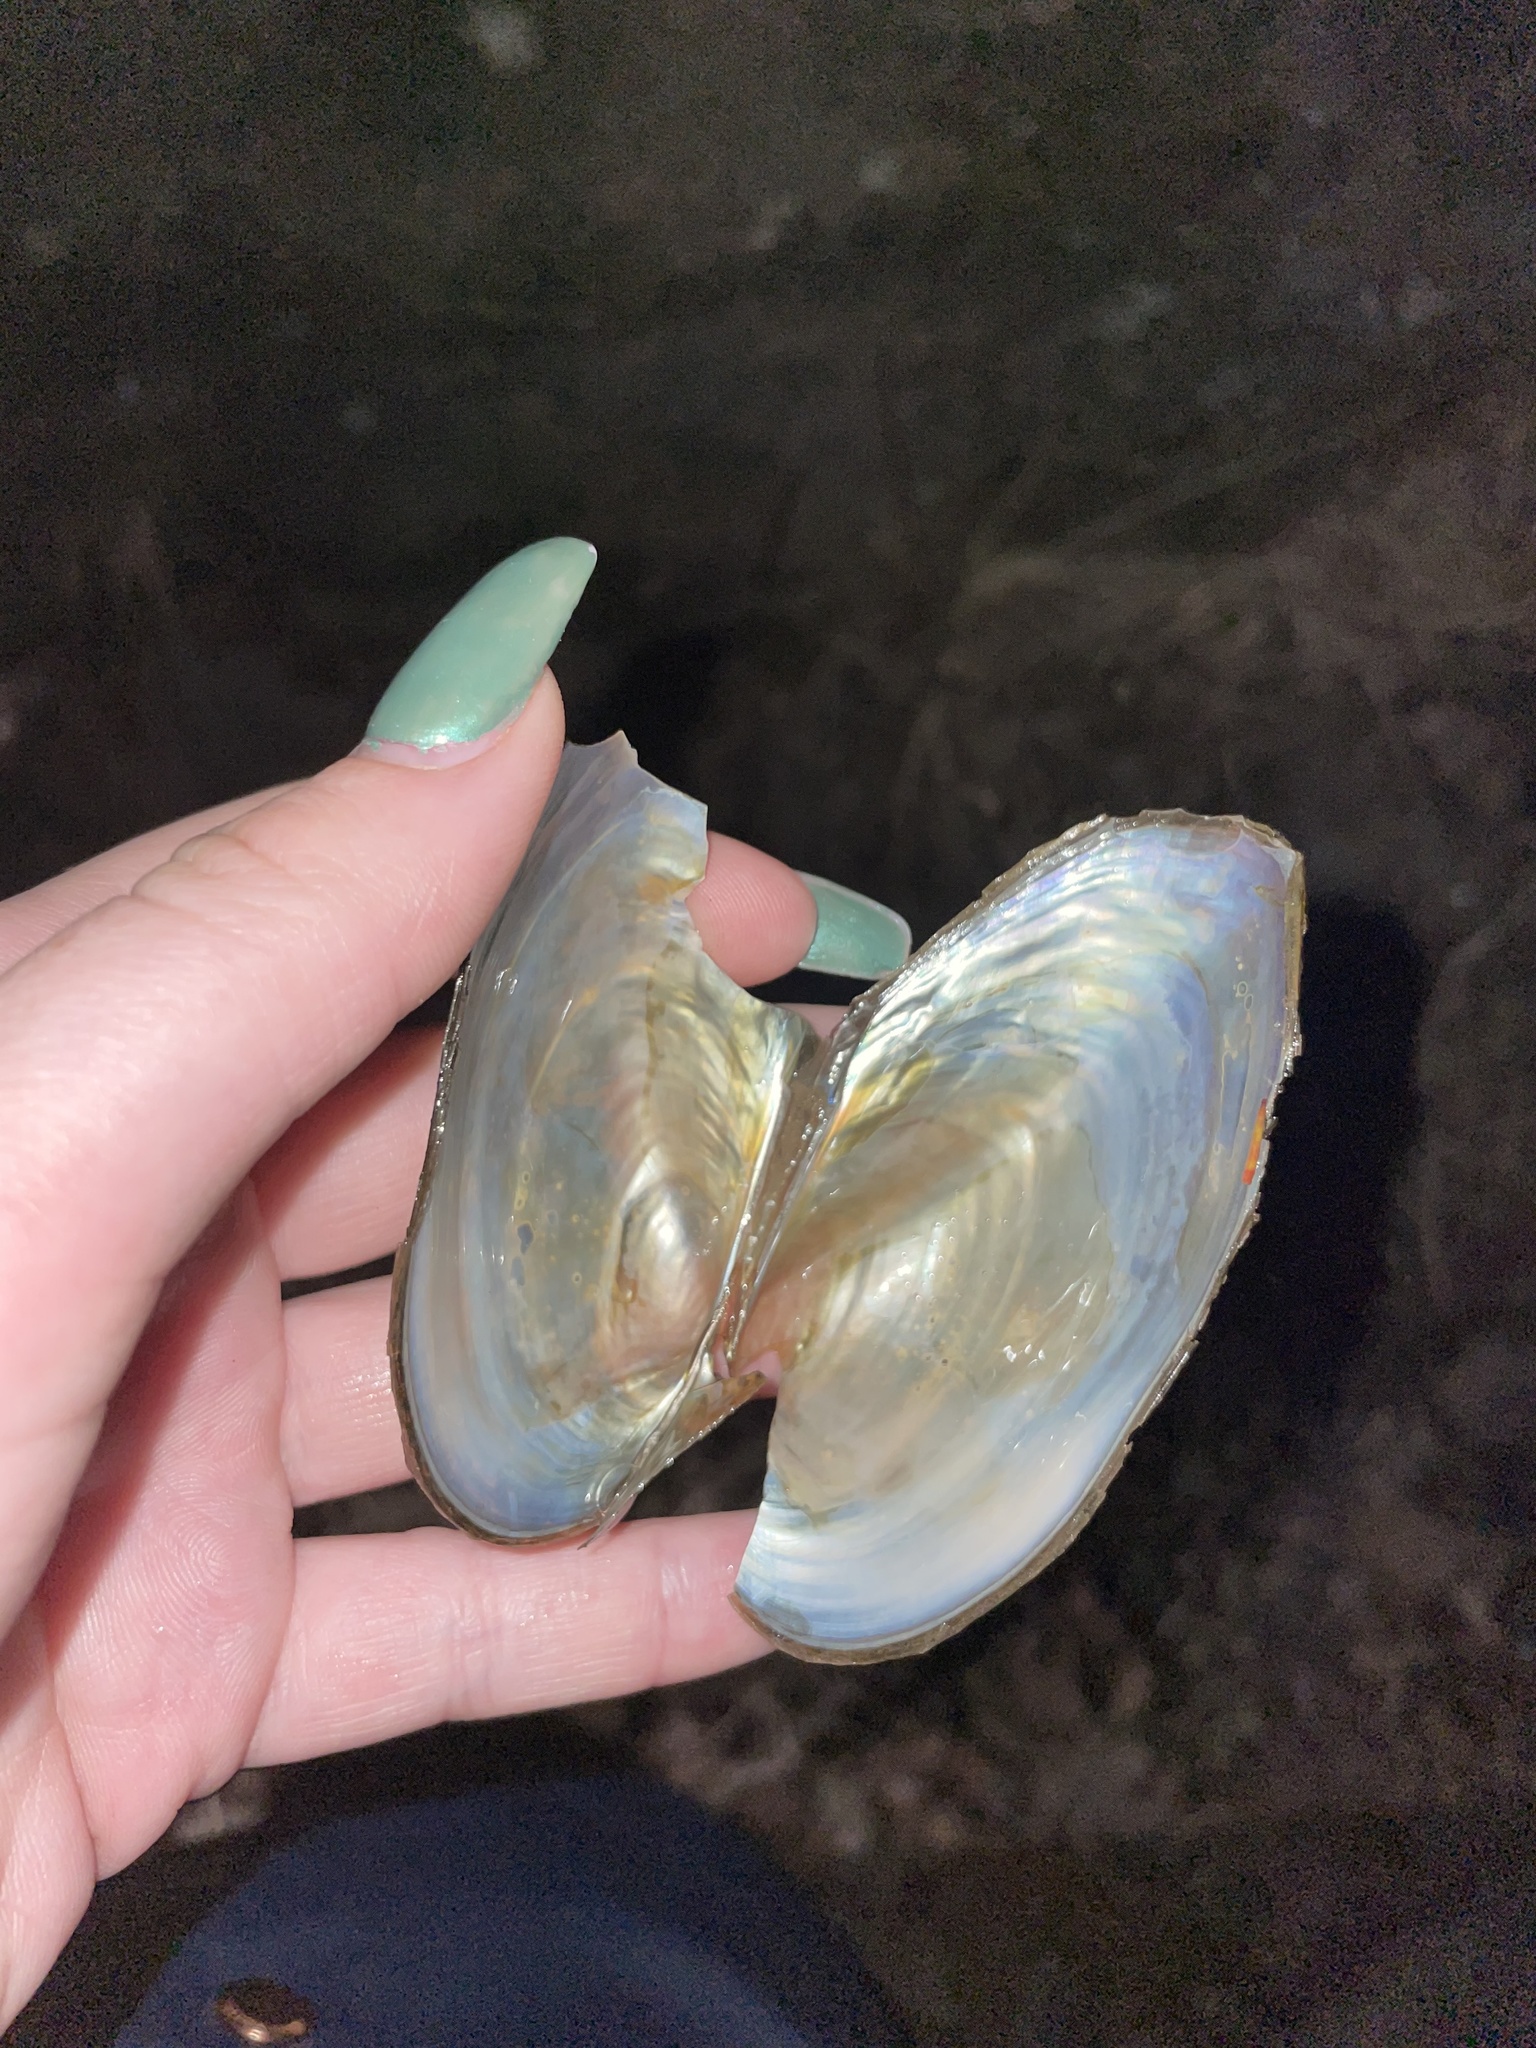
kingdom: Animalia
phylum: Mollusca
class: Bivalvia
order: Unionida
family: Unionidae
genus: Utterbackiana
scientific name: Utterbackiana implicata
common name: Alewife floater
